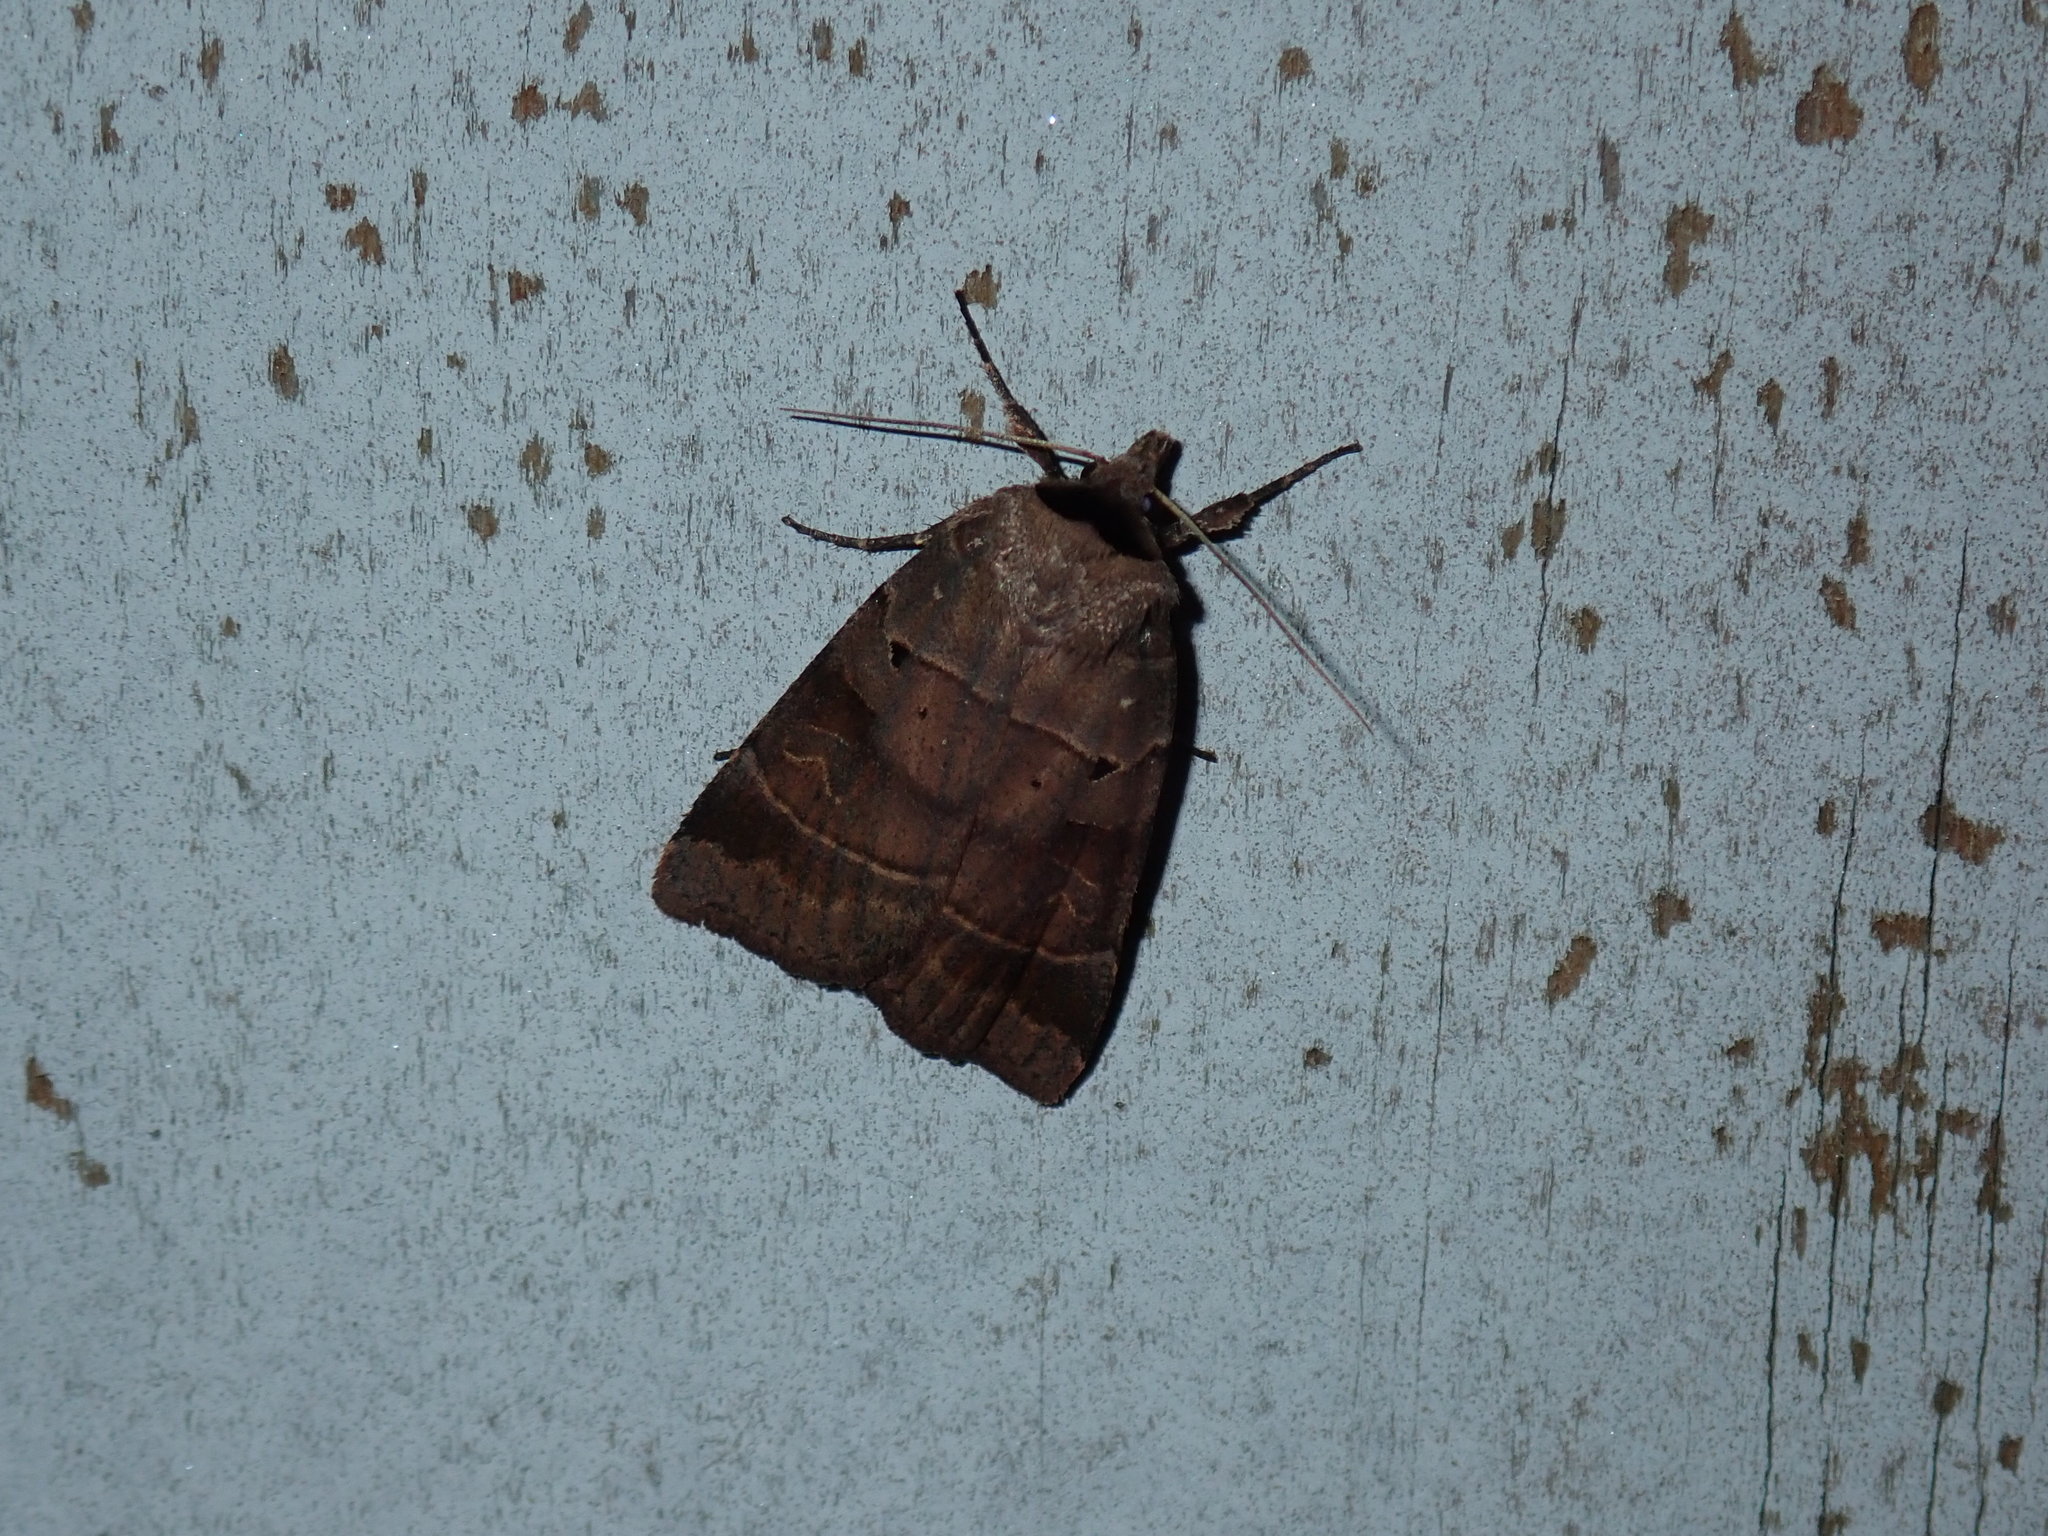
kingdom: Animalia
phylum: Arthropoda
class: Insecta
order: Lepidoptera
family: Noctuidae
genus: Agnorisma
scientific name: Agnorisma badinodis
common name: Pale-banded dart
